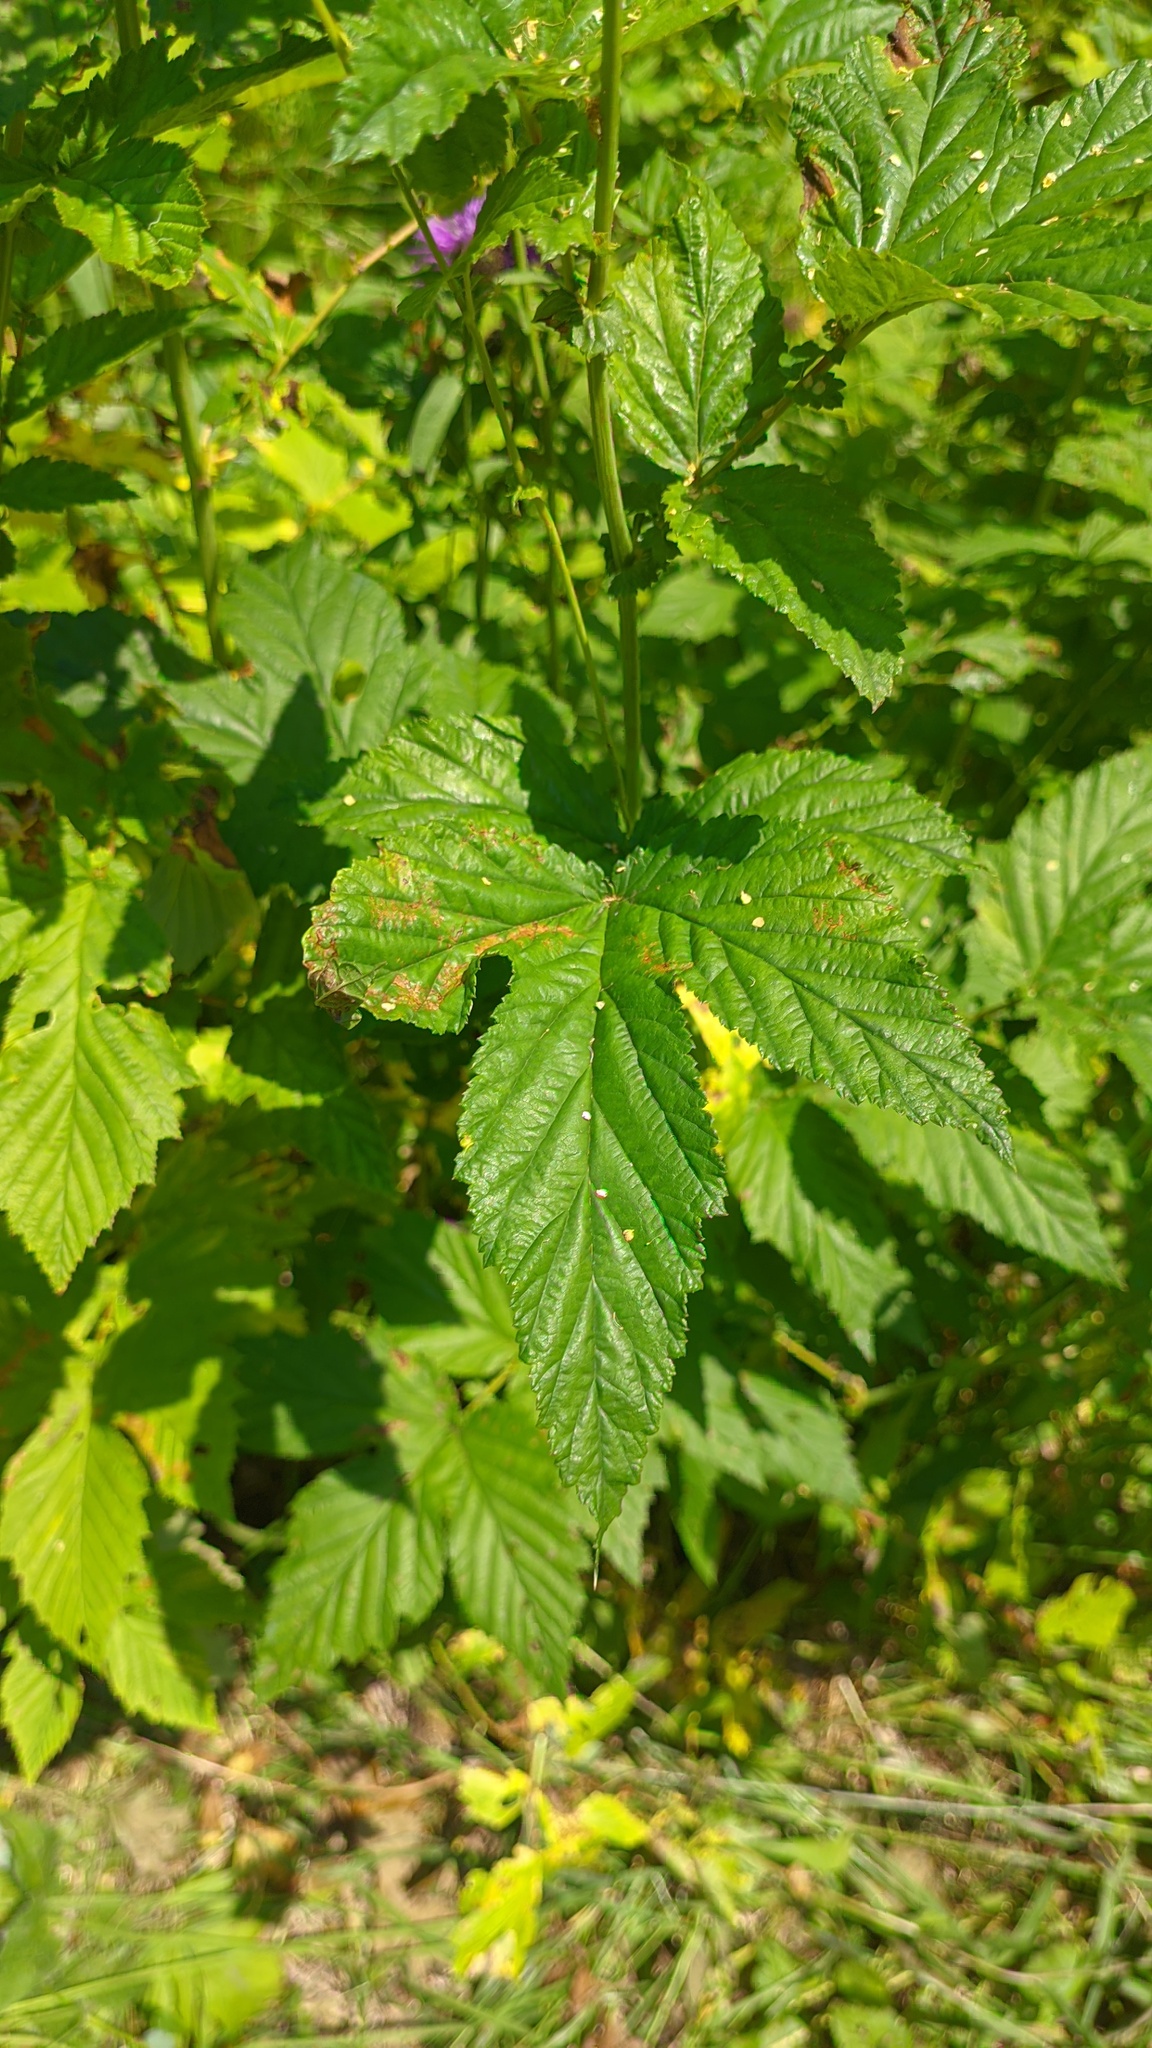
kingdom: Plantae
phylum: Tracheophyta
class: Magnoliopsida
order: Rosales
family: Rosaceae
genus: Filipendula
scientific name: Filipendula ulmaria
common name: Meadowsweet
